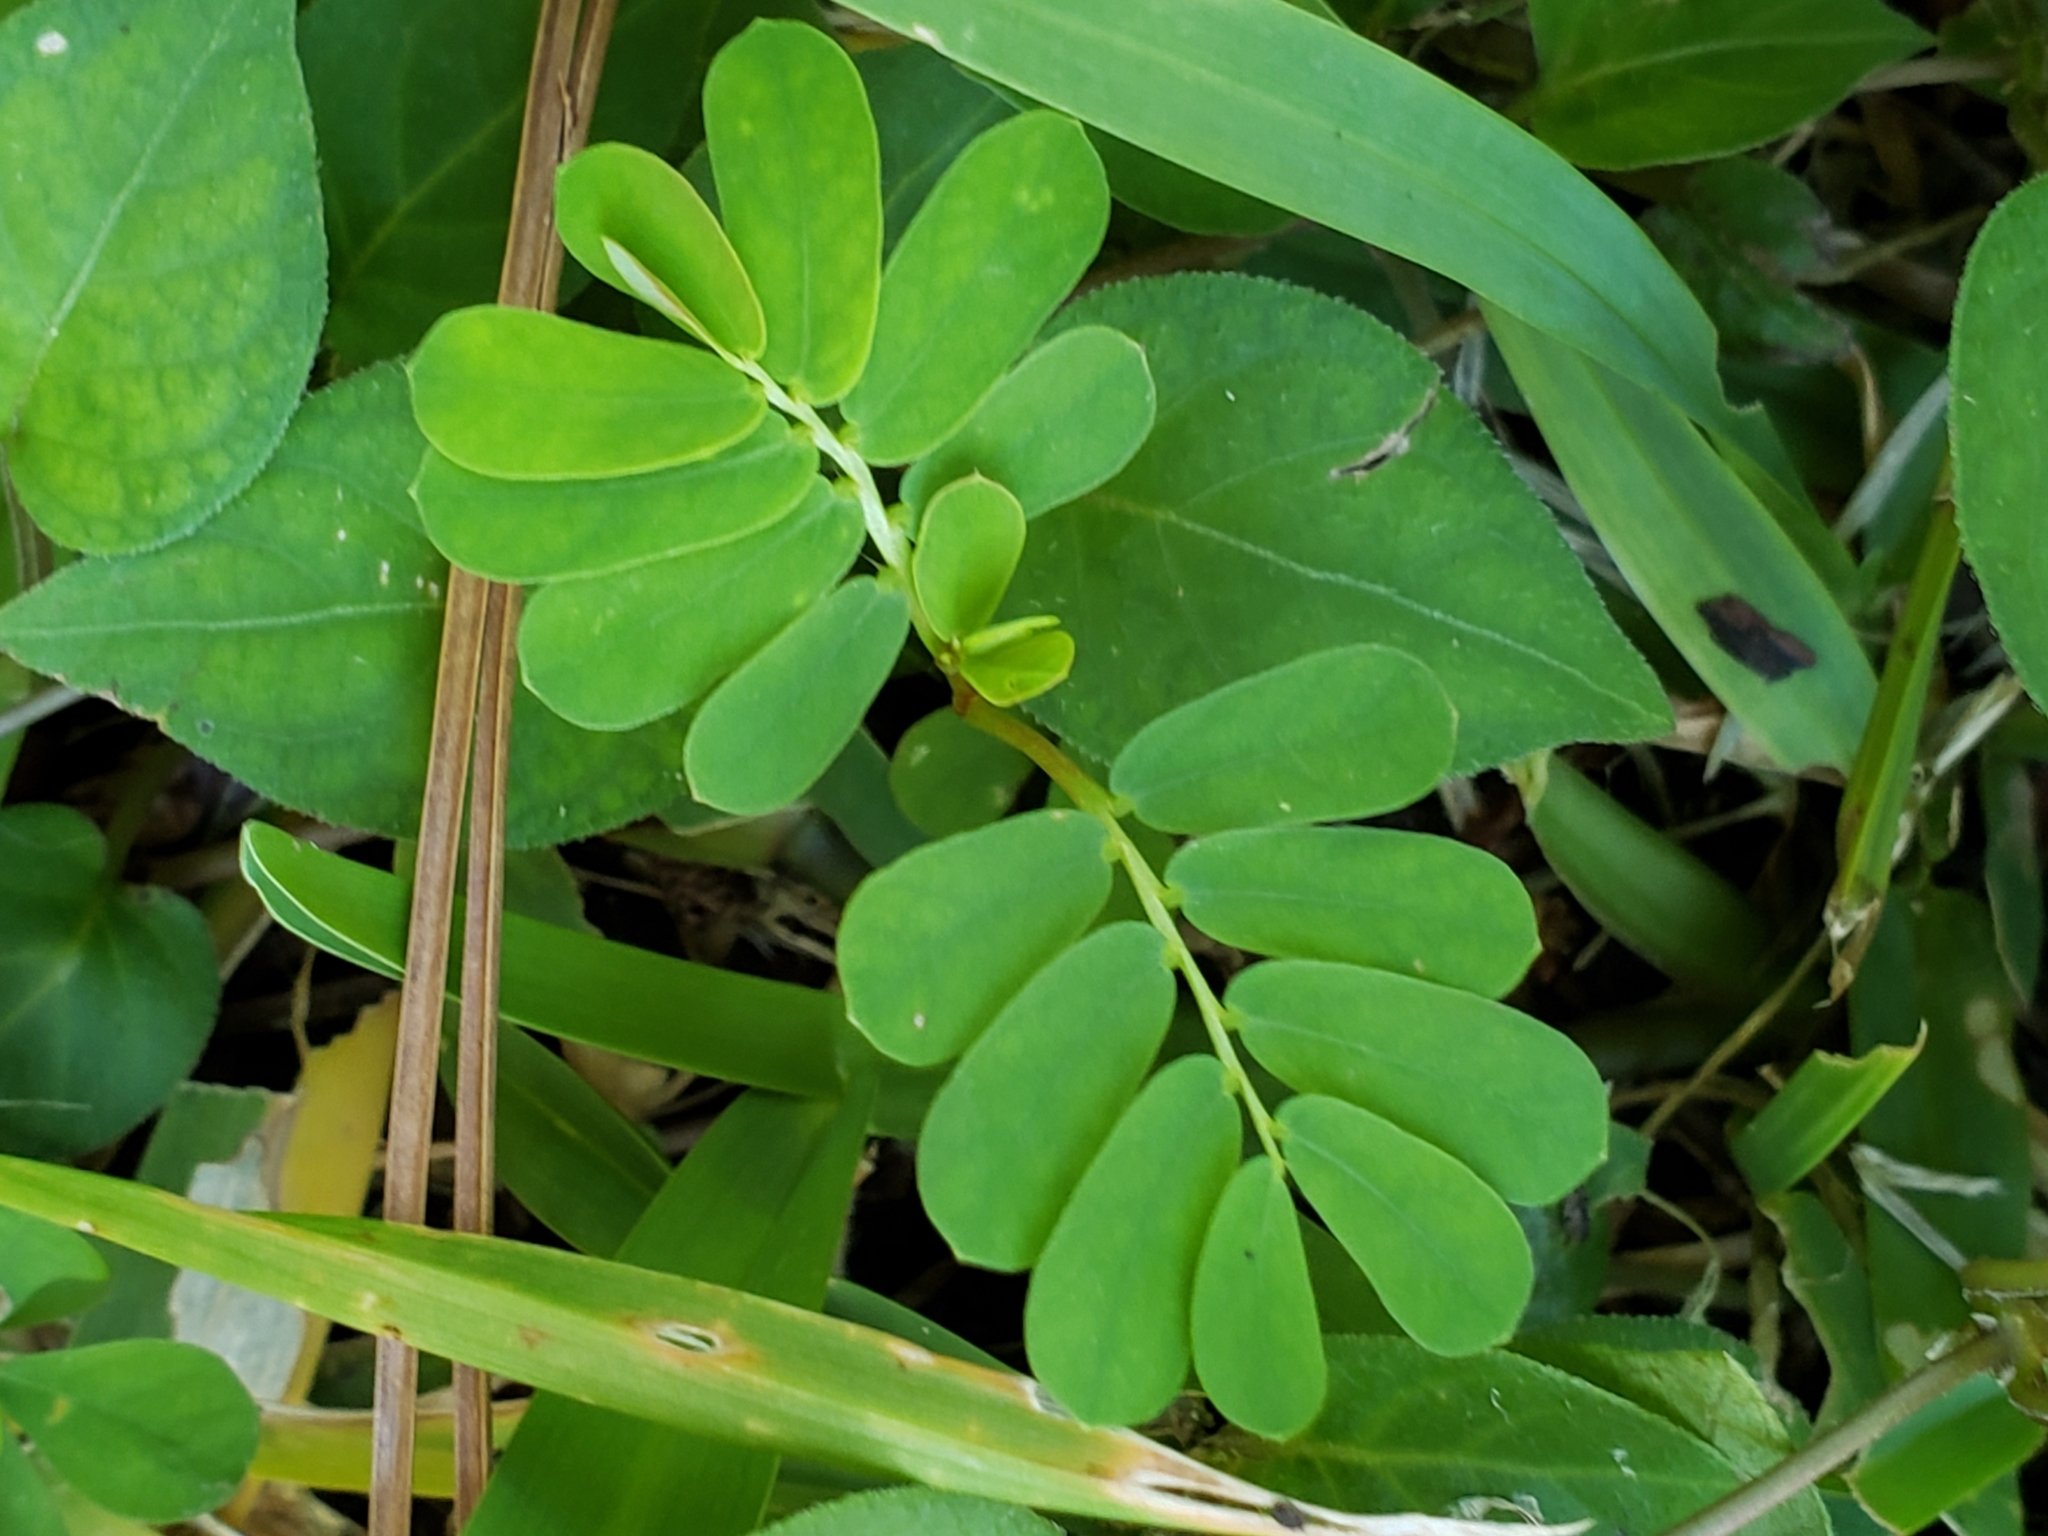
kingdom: Plantae
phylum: Tracheophyta
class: Magnoliopsida
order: Malpighiales
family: Phyllanthaceae
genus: Phyllanthus
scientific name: Phyllanthus urinaria
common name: Chamber bitter
